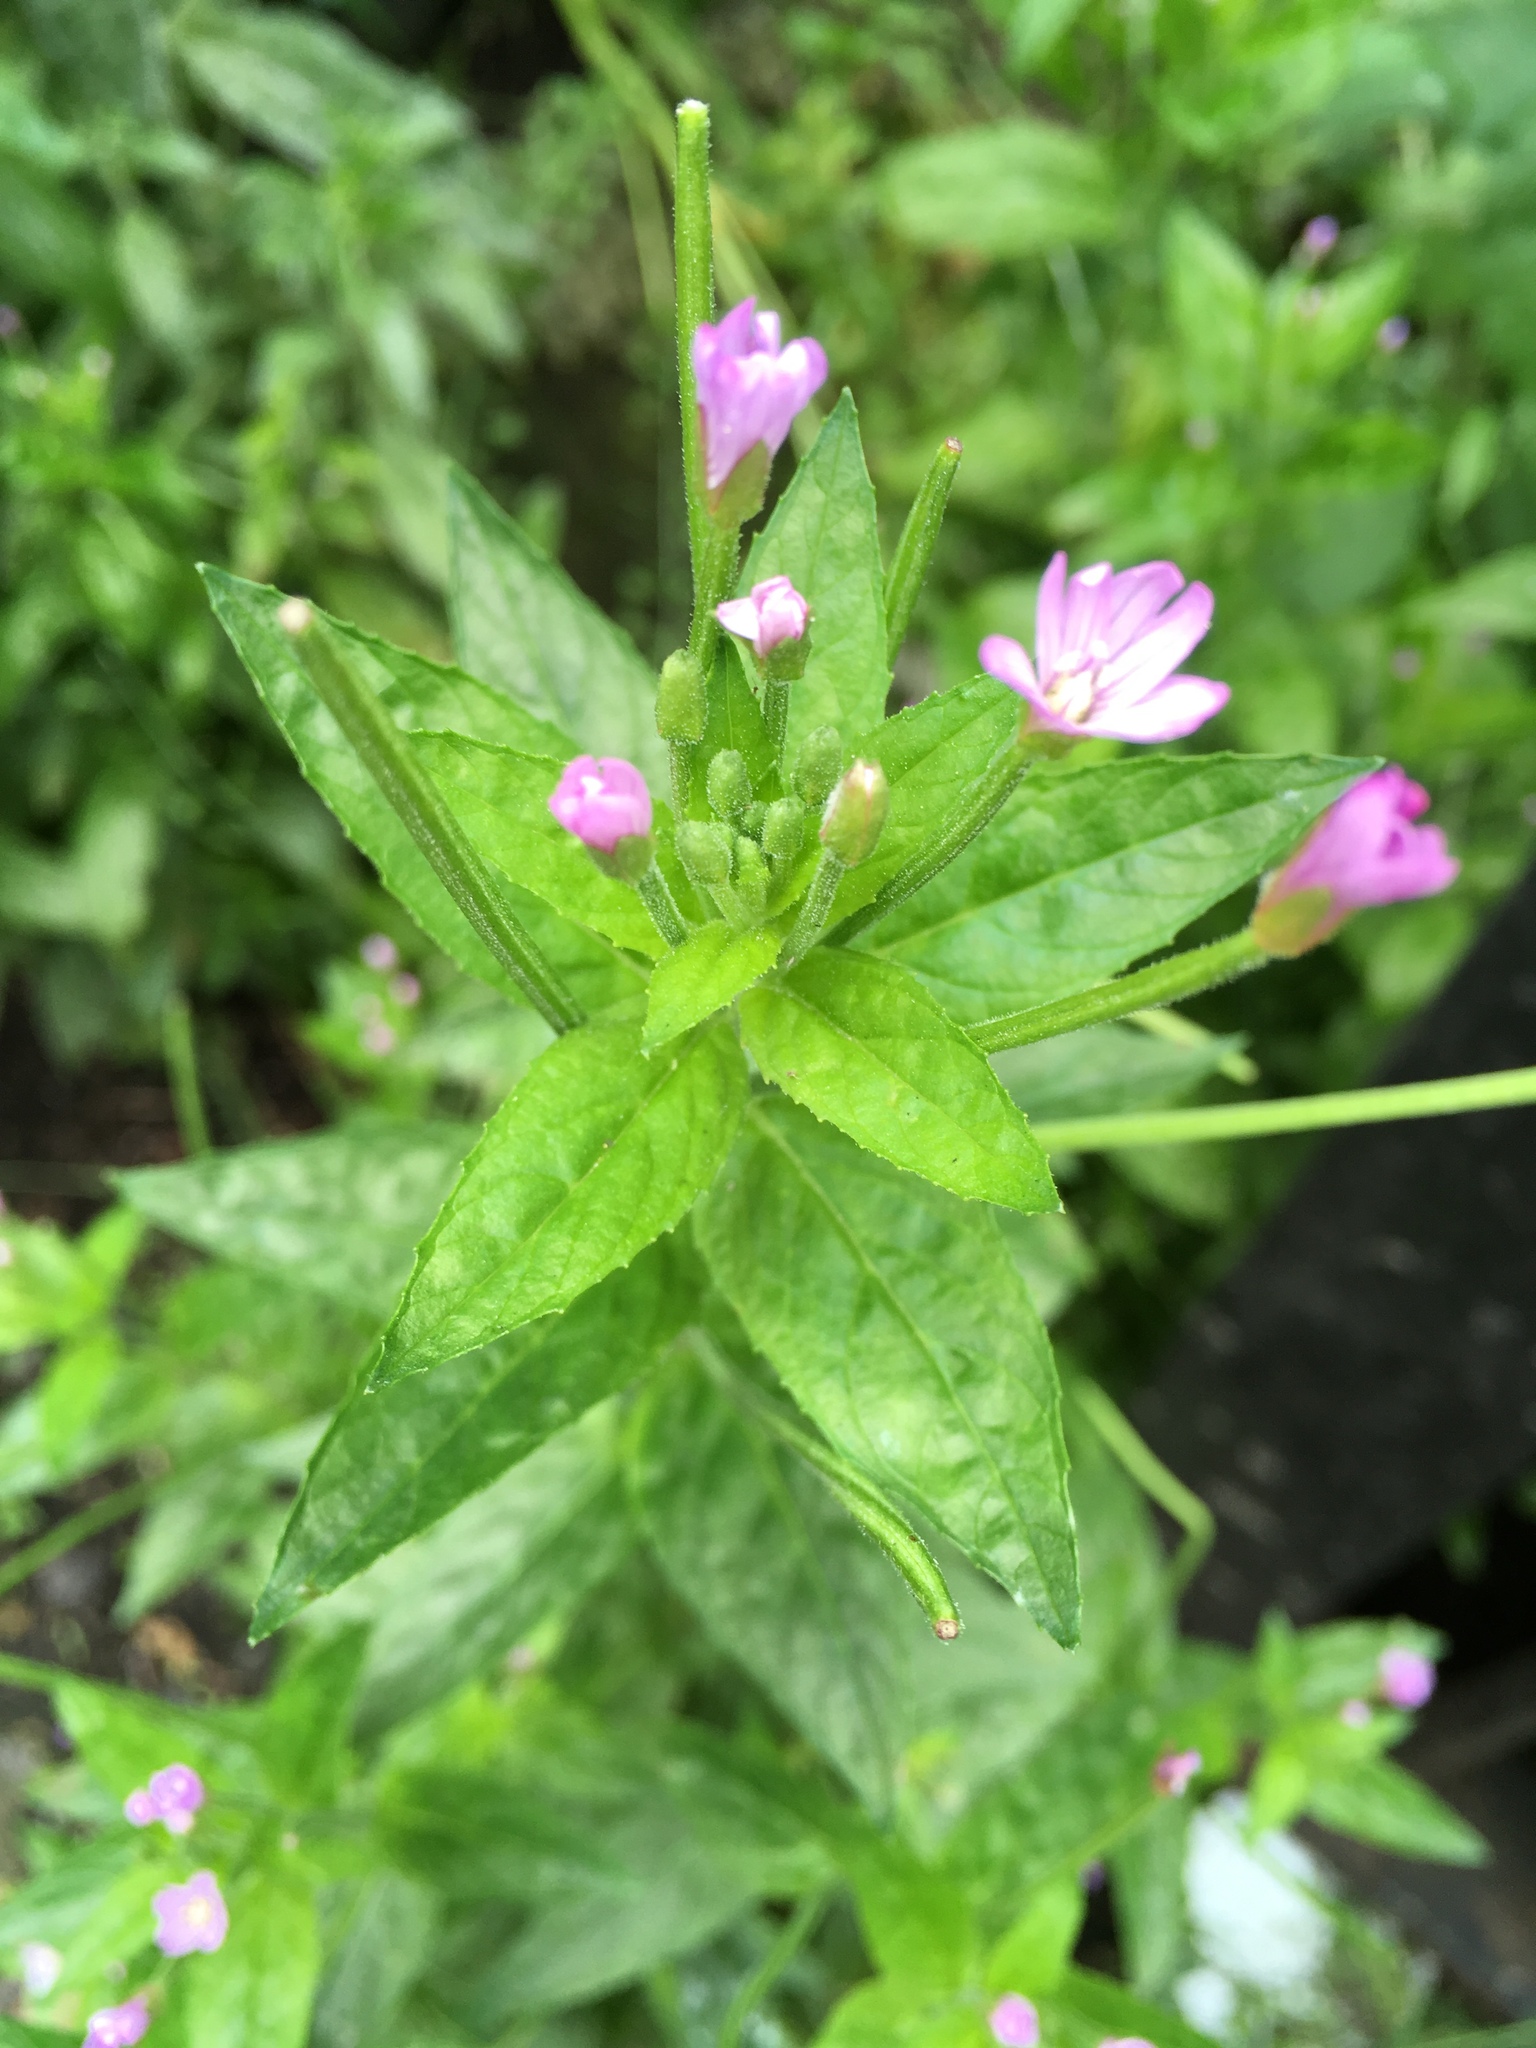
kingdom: Plantae
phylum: Tracheophyta
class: Magnoliopsida
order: Myrtales
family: Onagraceae
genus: Epilobium
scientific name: Epilobium montanum
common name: Broad-leaved willowherb
